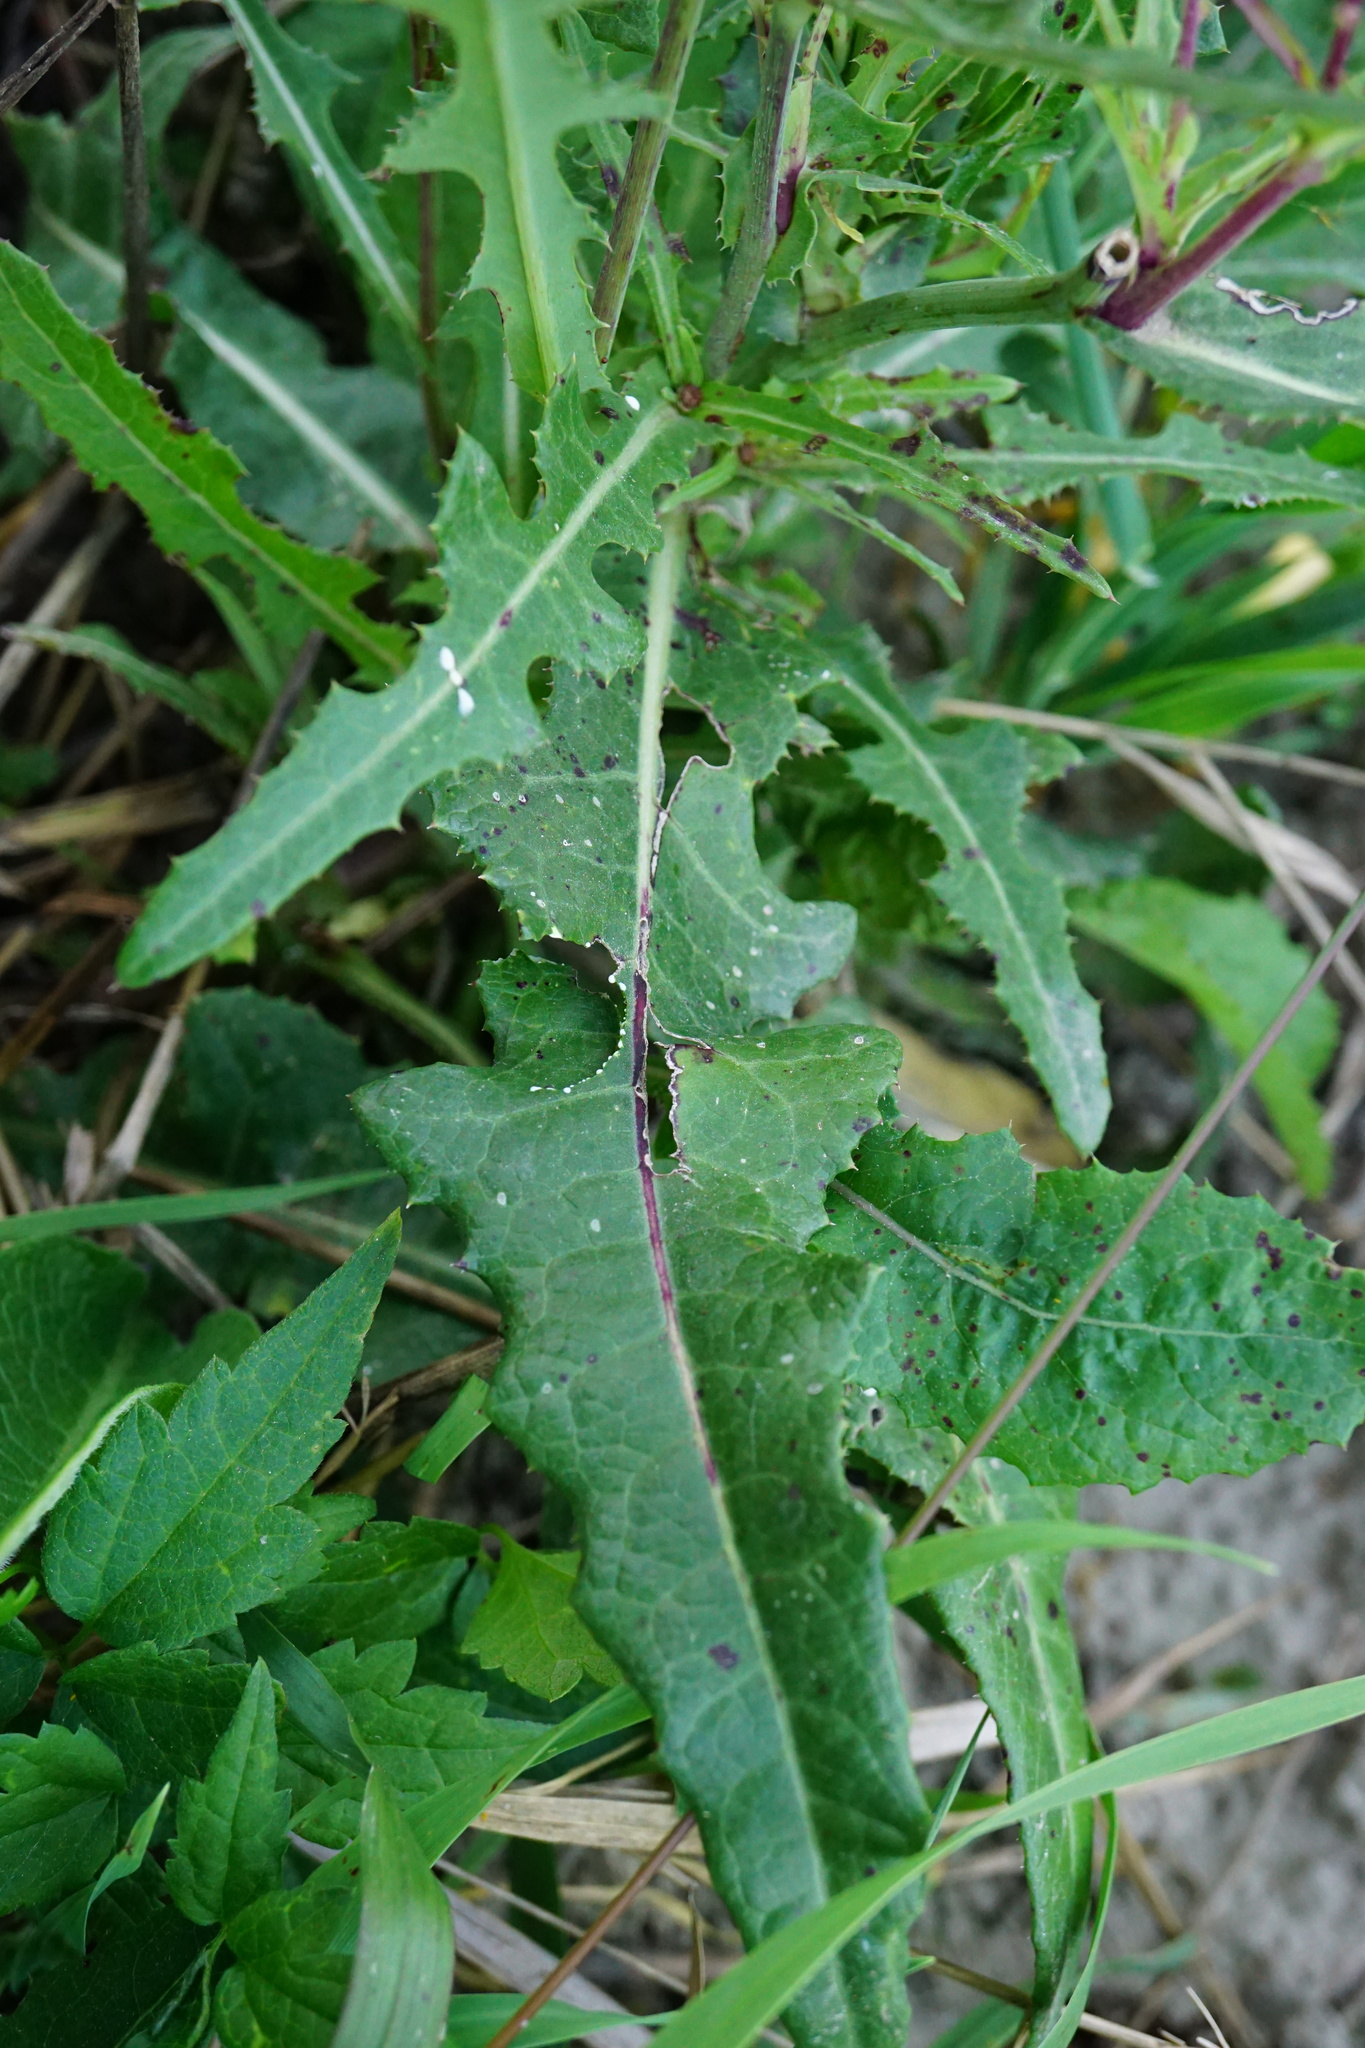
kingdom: Plantae
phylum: Tracheophyta
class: Magnoliopsida
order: Asterales
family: Asteraceae
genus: Sonchus
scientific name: Sonchus arvensis
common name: Perennial sow-thistle
